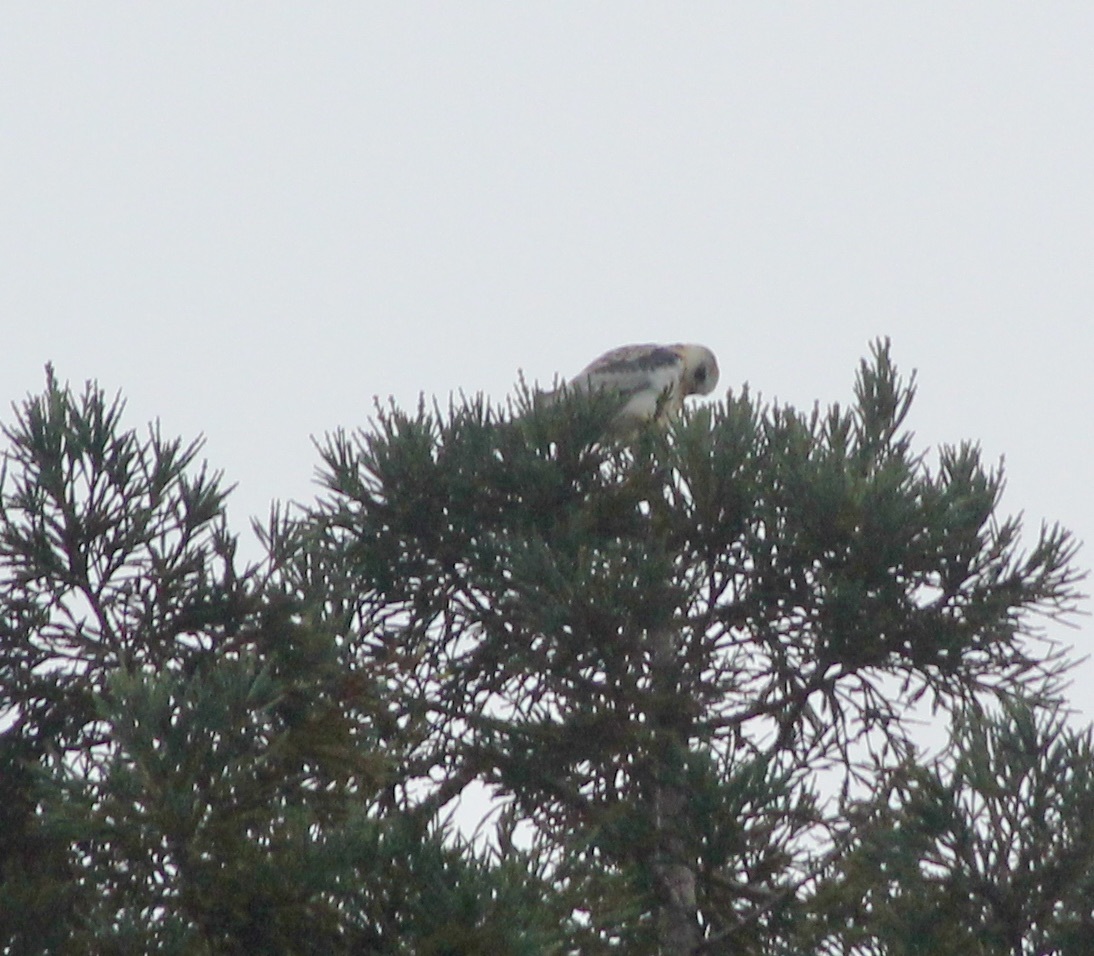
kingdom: Animalia
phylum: Chordata
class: Aves
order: Accipitriformes
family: Accipitridae
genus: Elanus
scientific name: Elanus leucurus
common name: White-tailed kite
